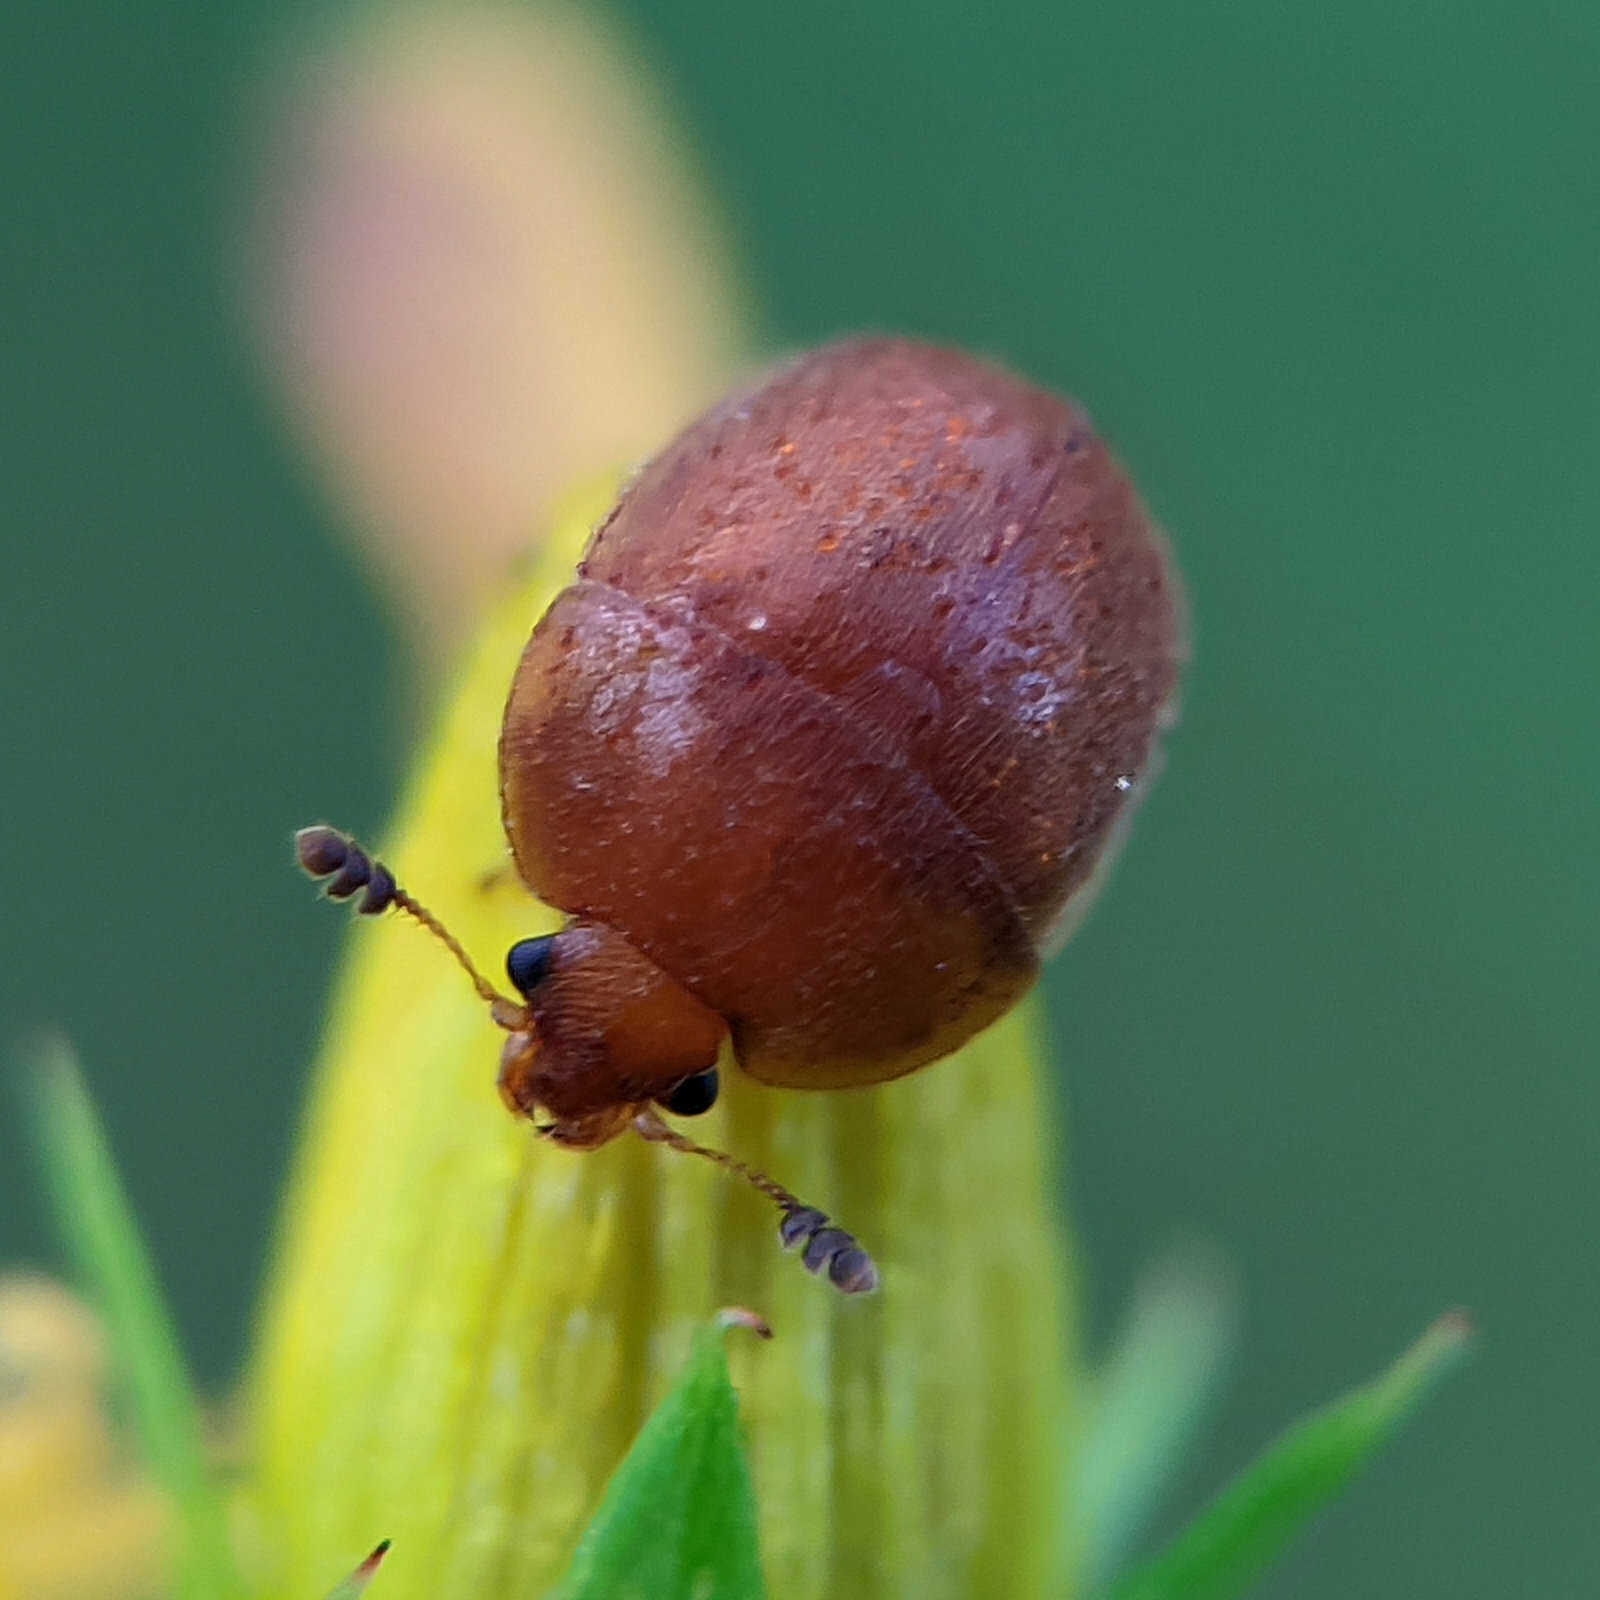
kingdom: Animalia
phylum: Arthropoda
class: Insecta
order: Coleoptera
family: Nitidulidae
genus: Cychramus
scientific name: Cychramus luteus
